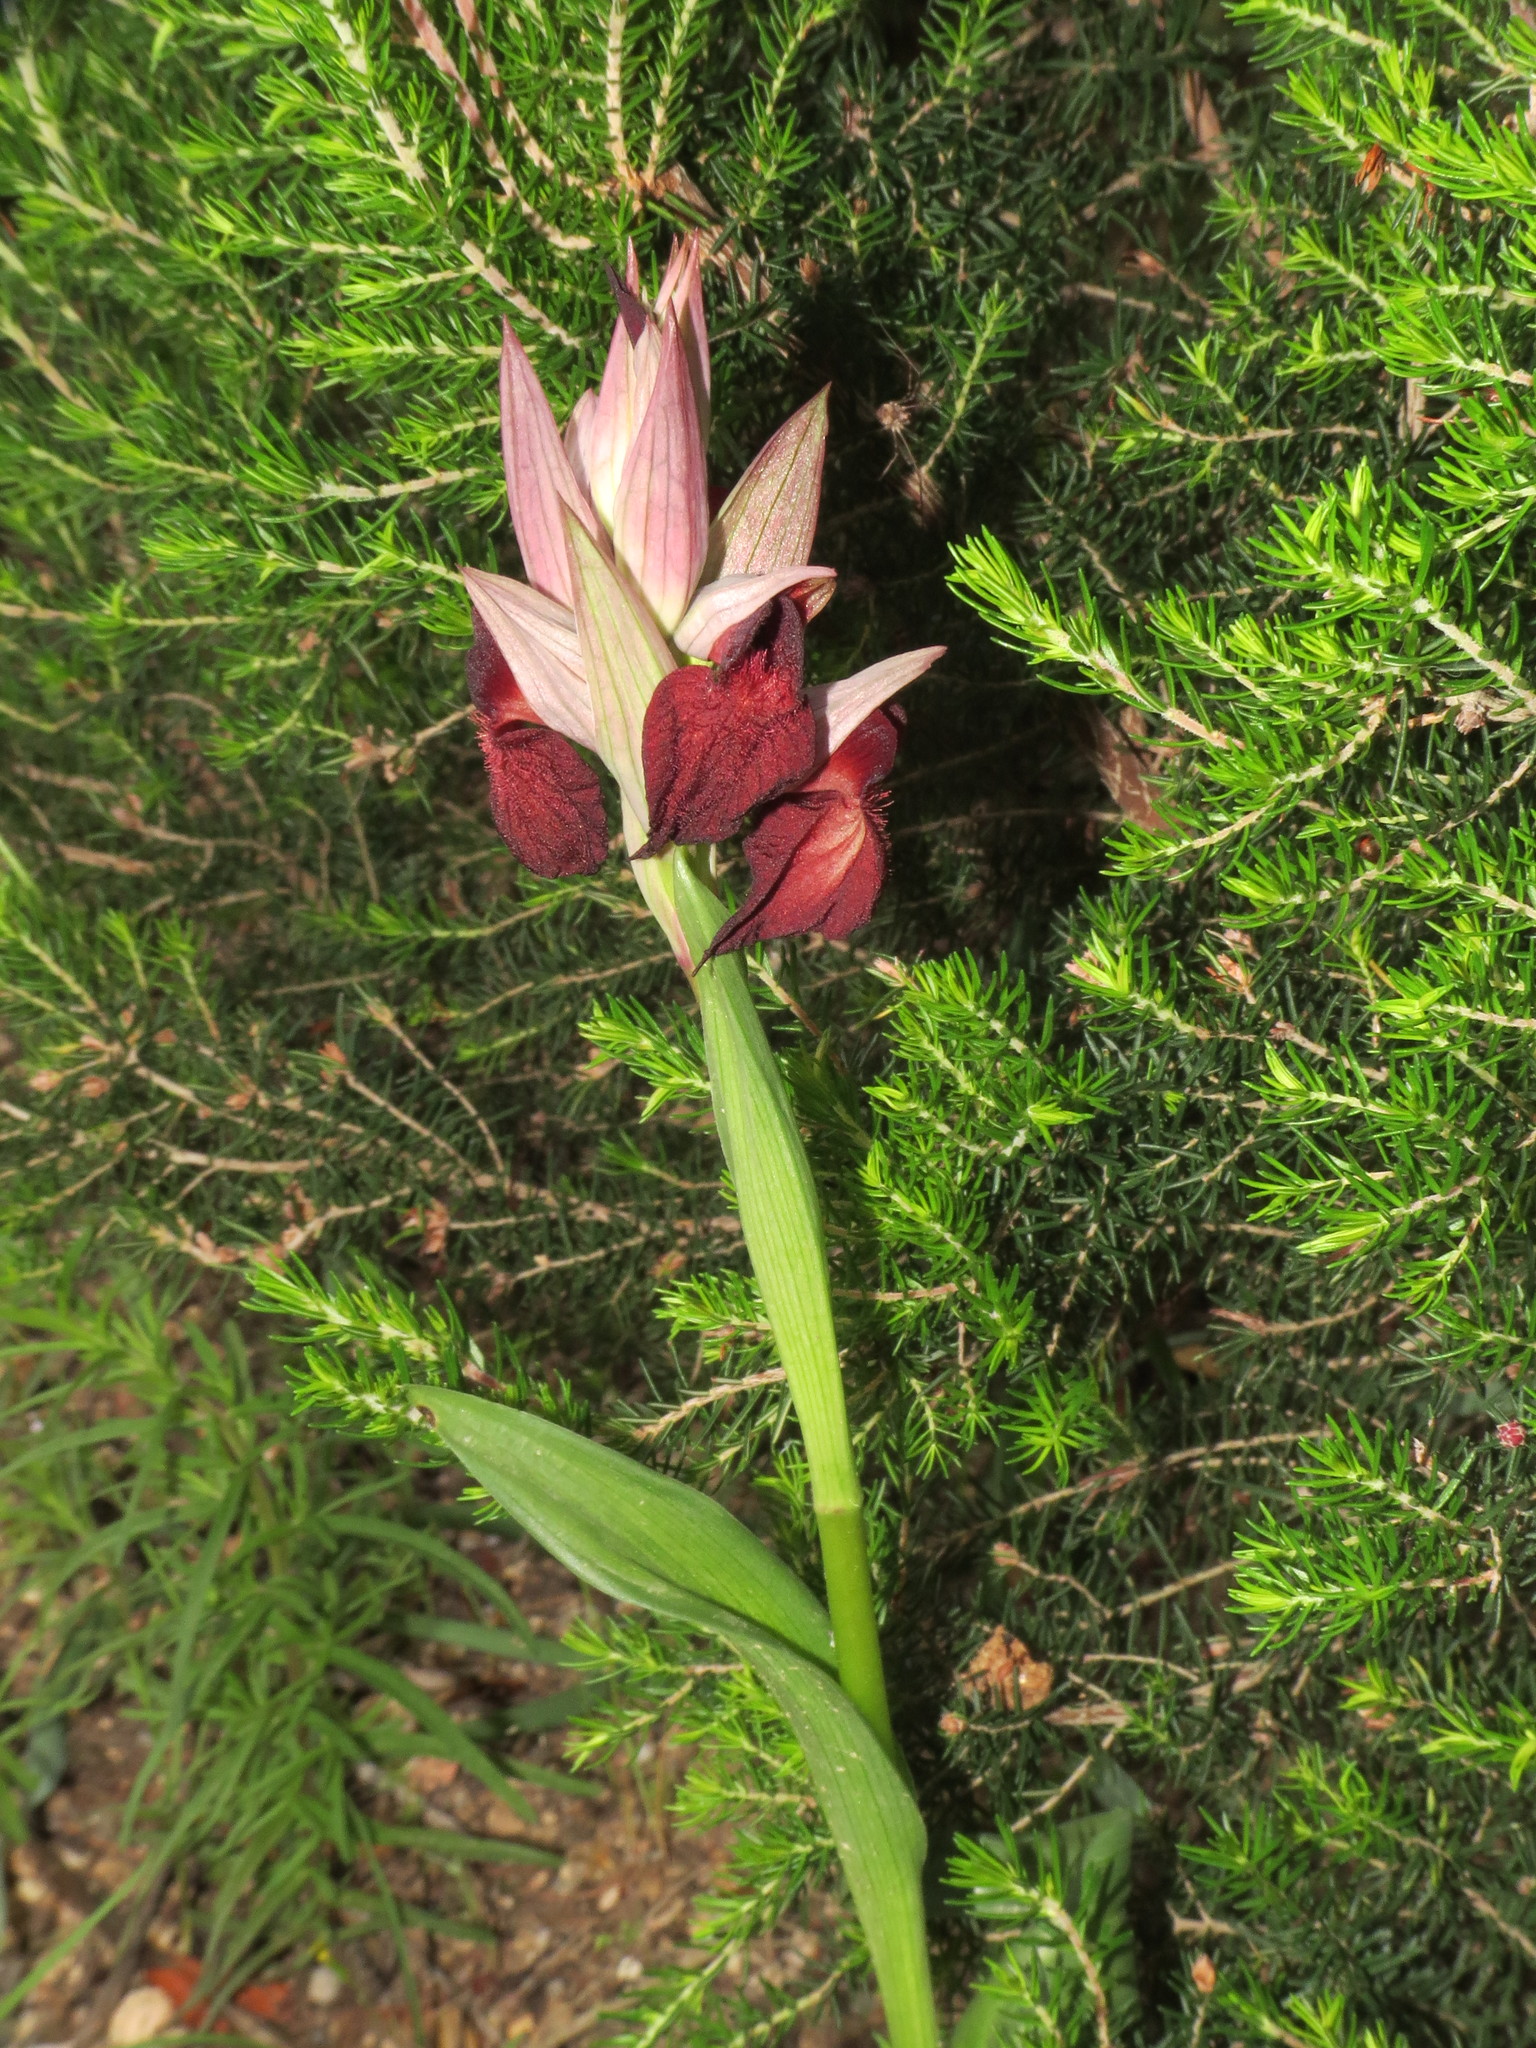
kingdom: Plantae
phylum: Tracheophyta
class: Liliopsida
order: Asparagales
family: Orchidaceae
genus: Serapias
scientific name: Serapias cordigera
